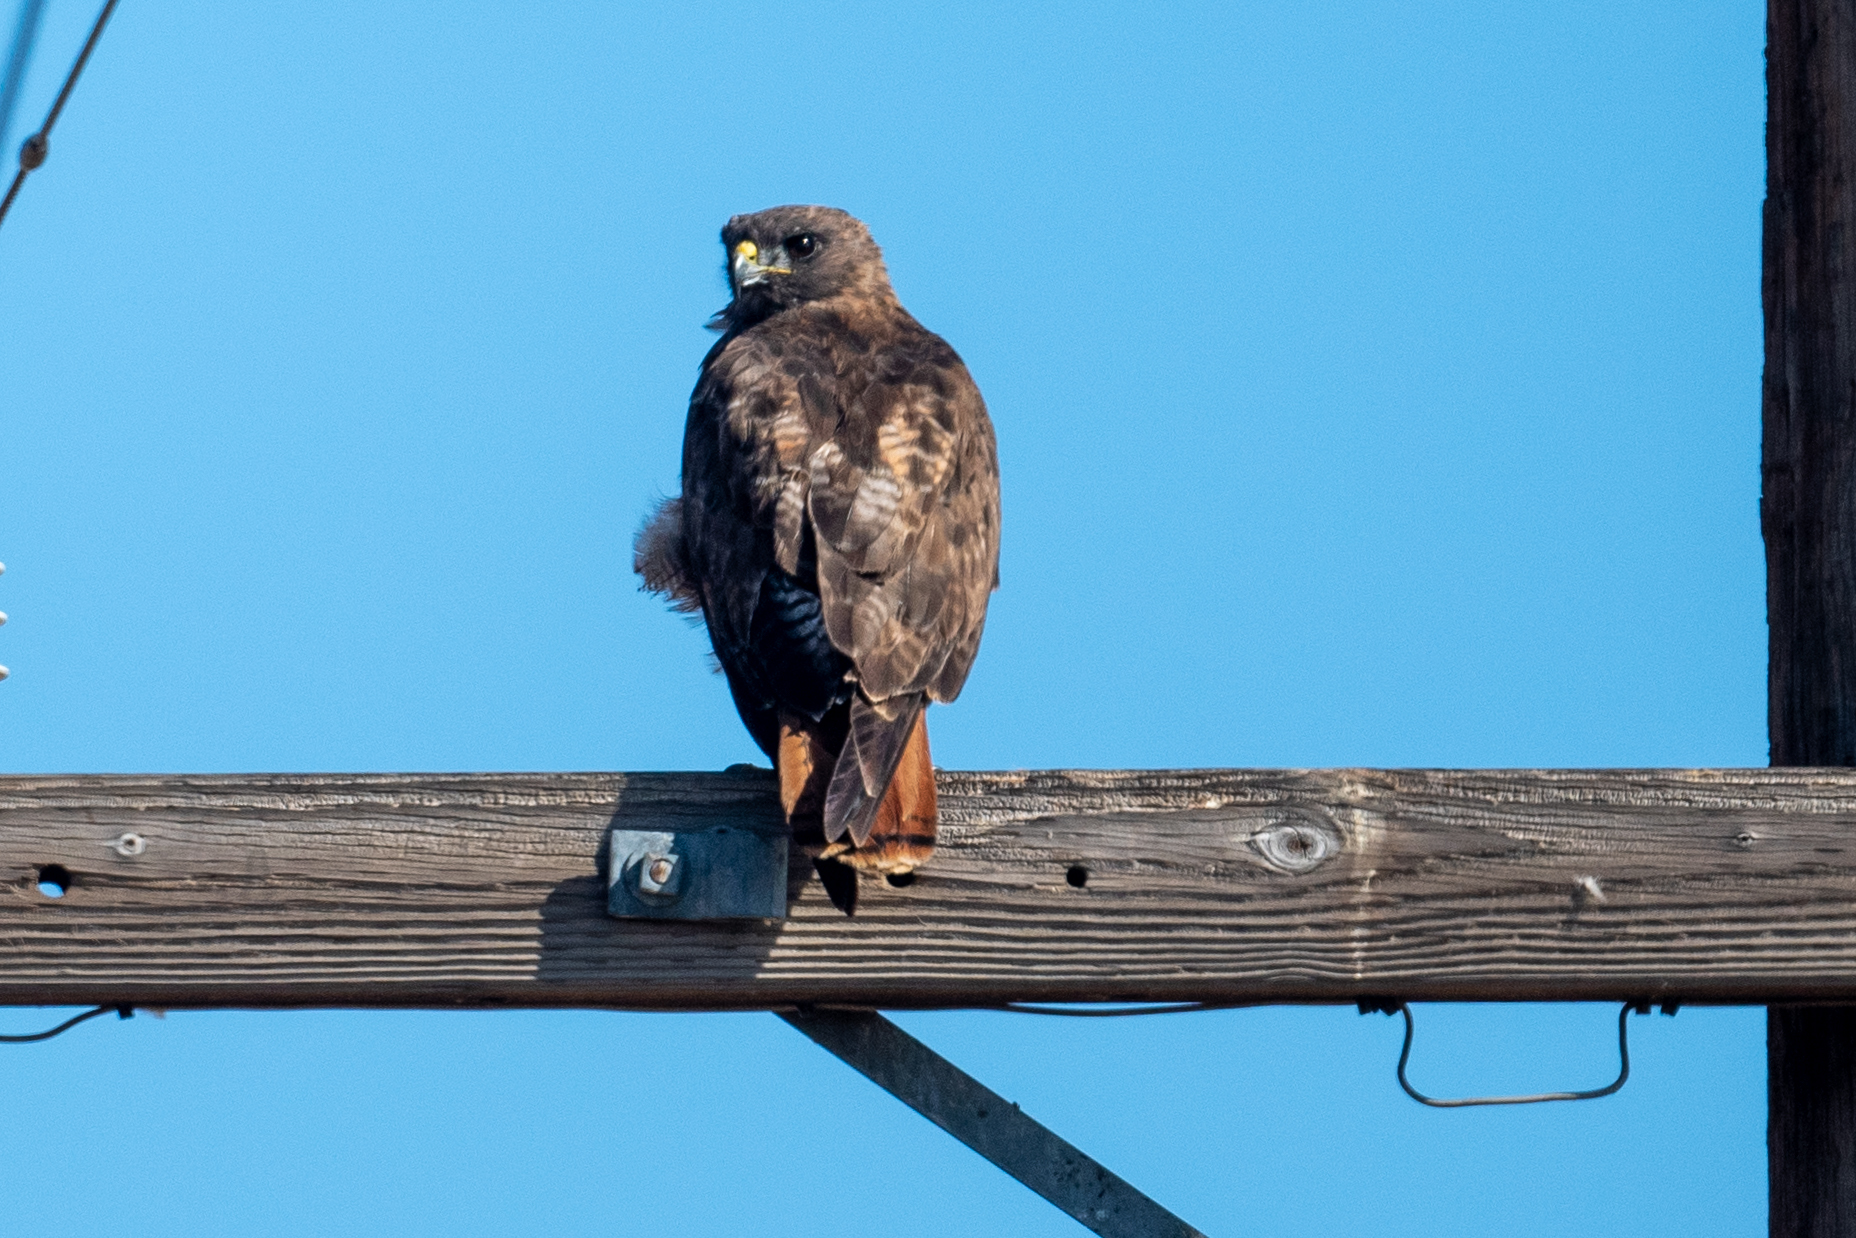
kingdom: Animalia
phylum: Chordata
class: Aves
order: Accipitriformes
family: Accipitridae
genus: Buteo
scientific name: Buteo jamaicensis
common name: Red-tailed hawk
